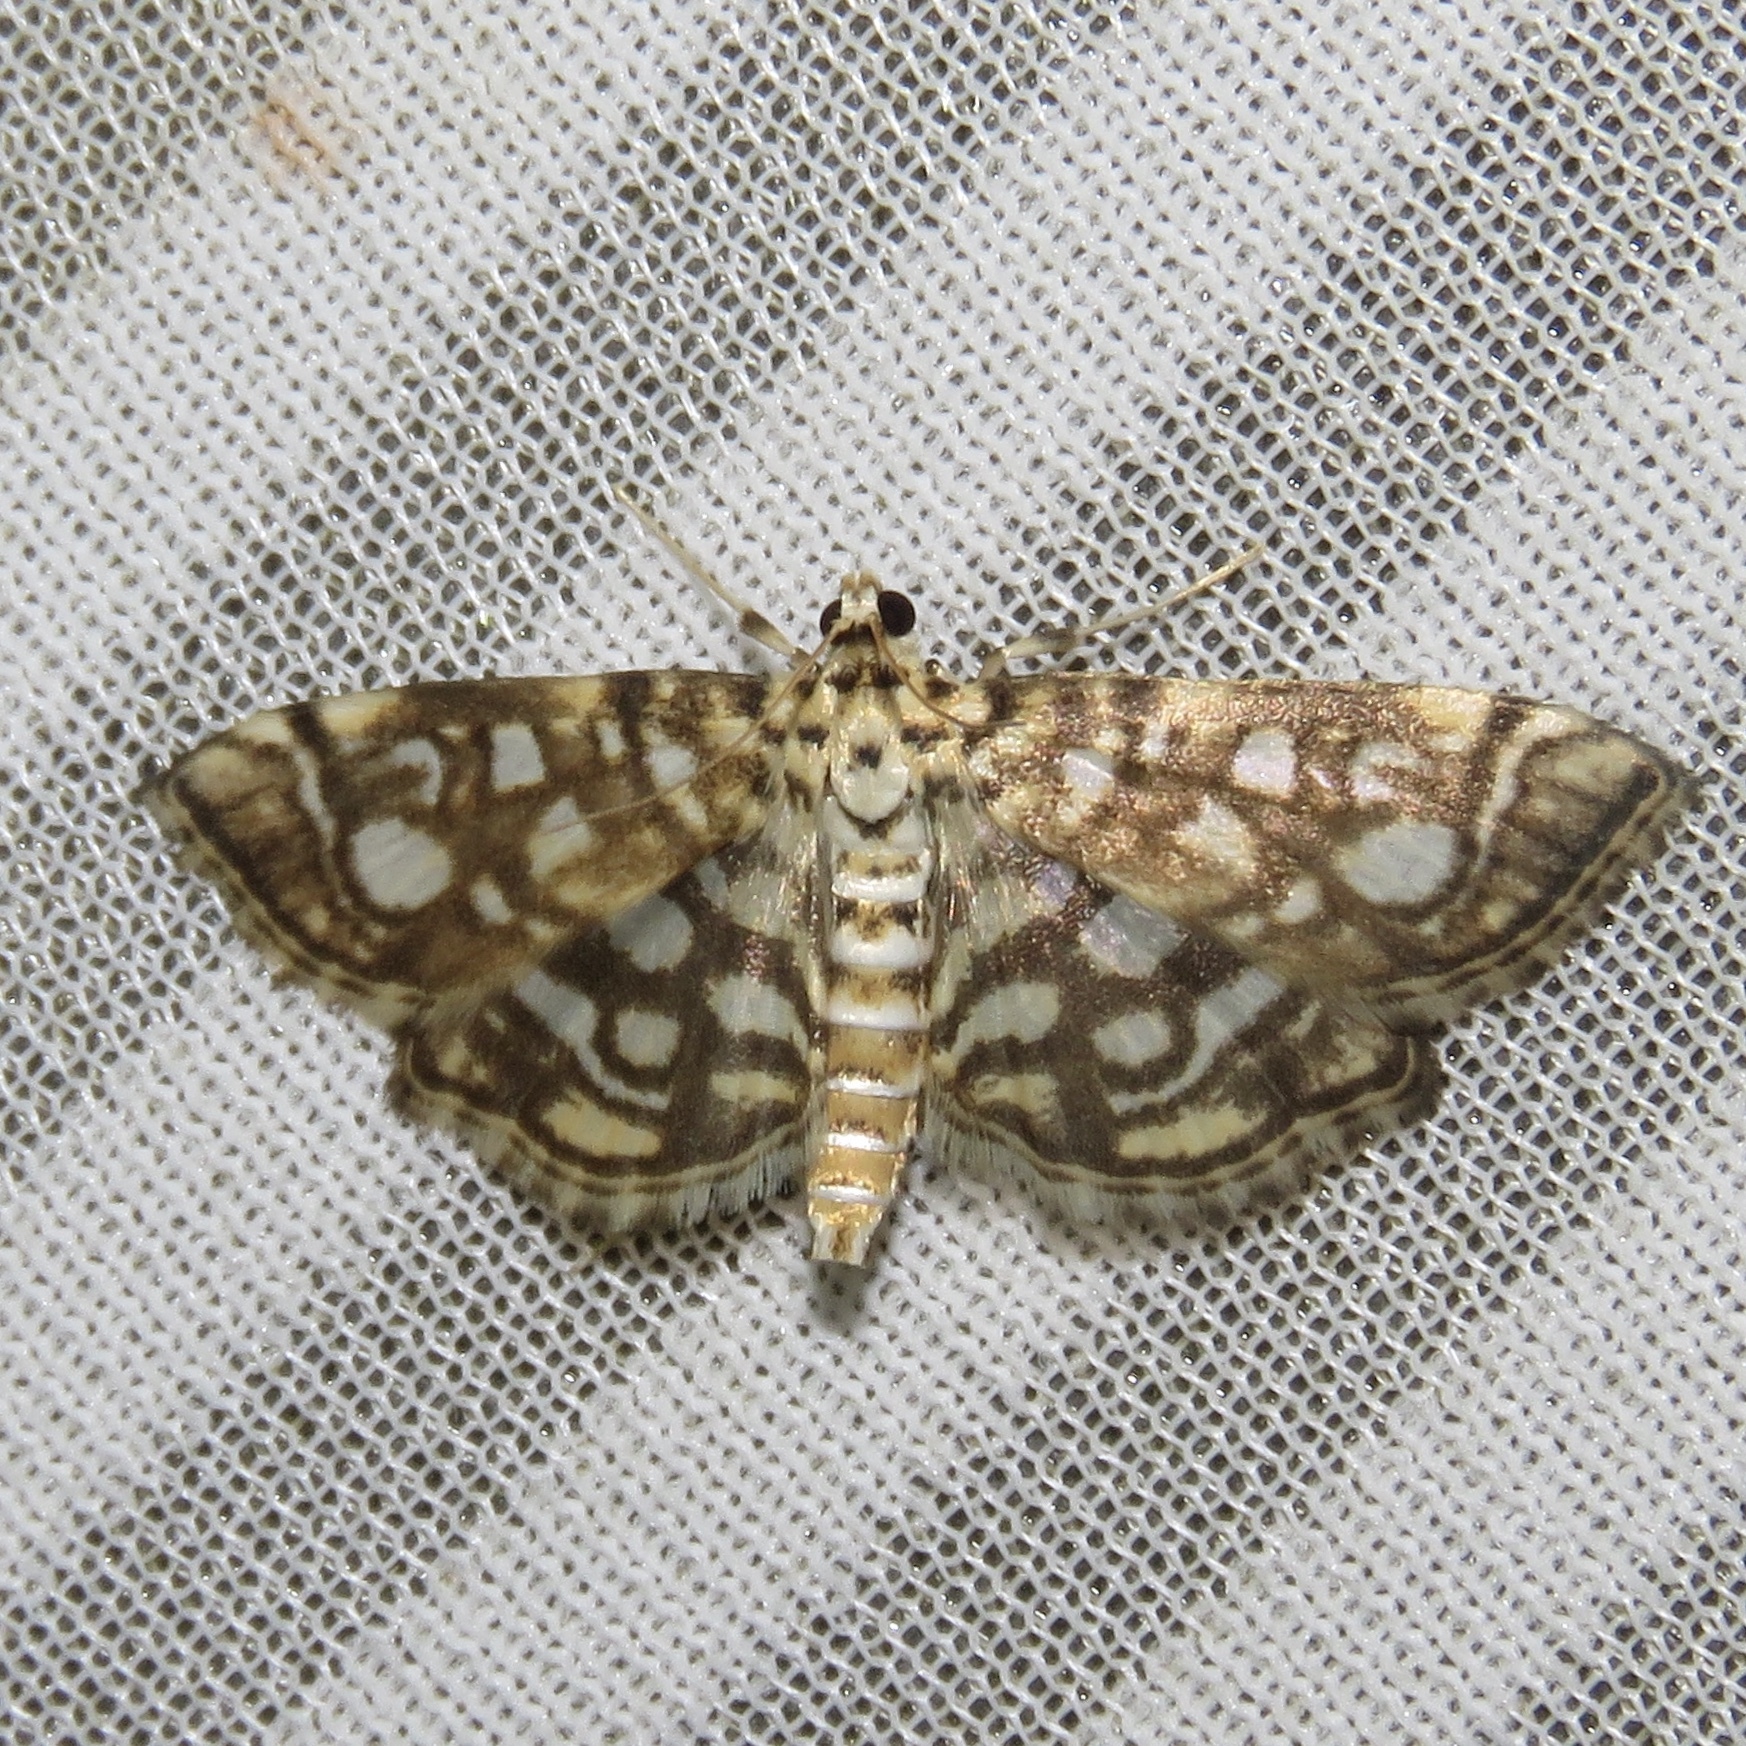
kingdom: Animalia
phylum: Arthropoda
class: Insecta
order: Lepidoptera
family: Crambidae
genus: Lygropia
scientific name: Lygropia rivulalis
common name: Bog lygropia moth
